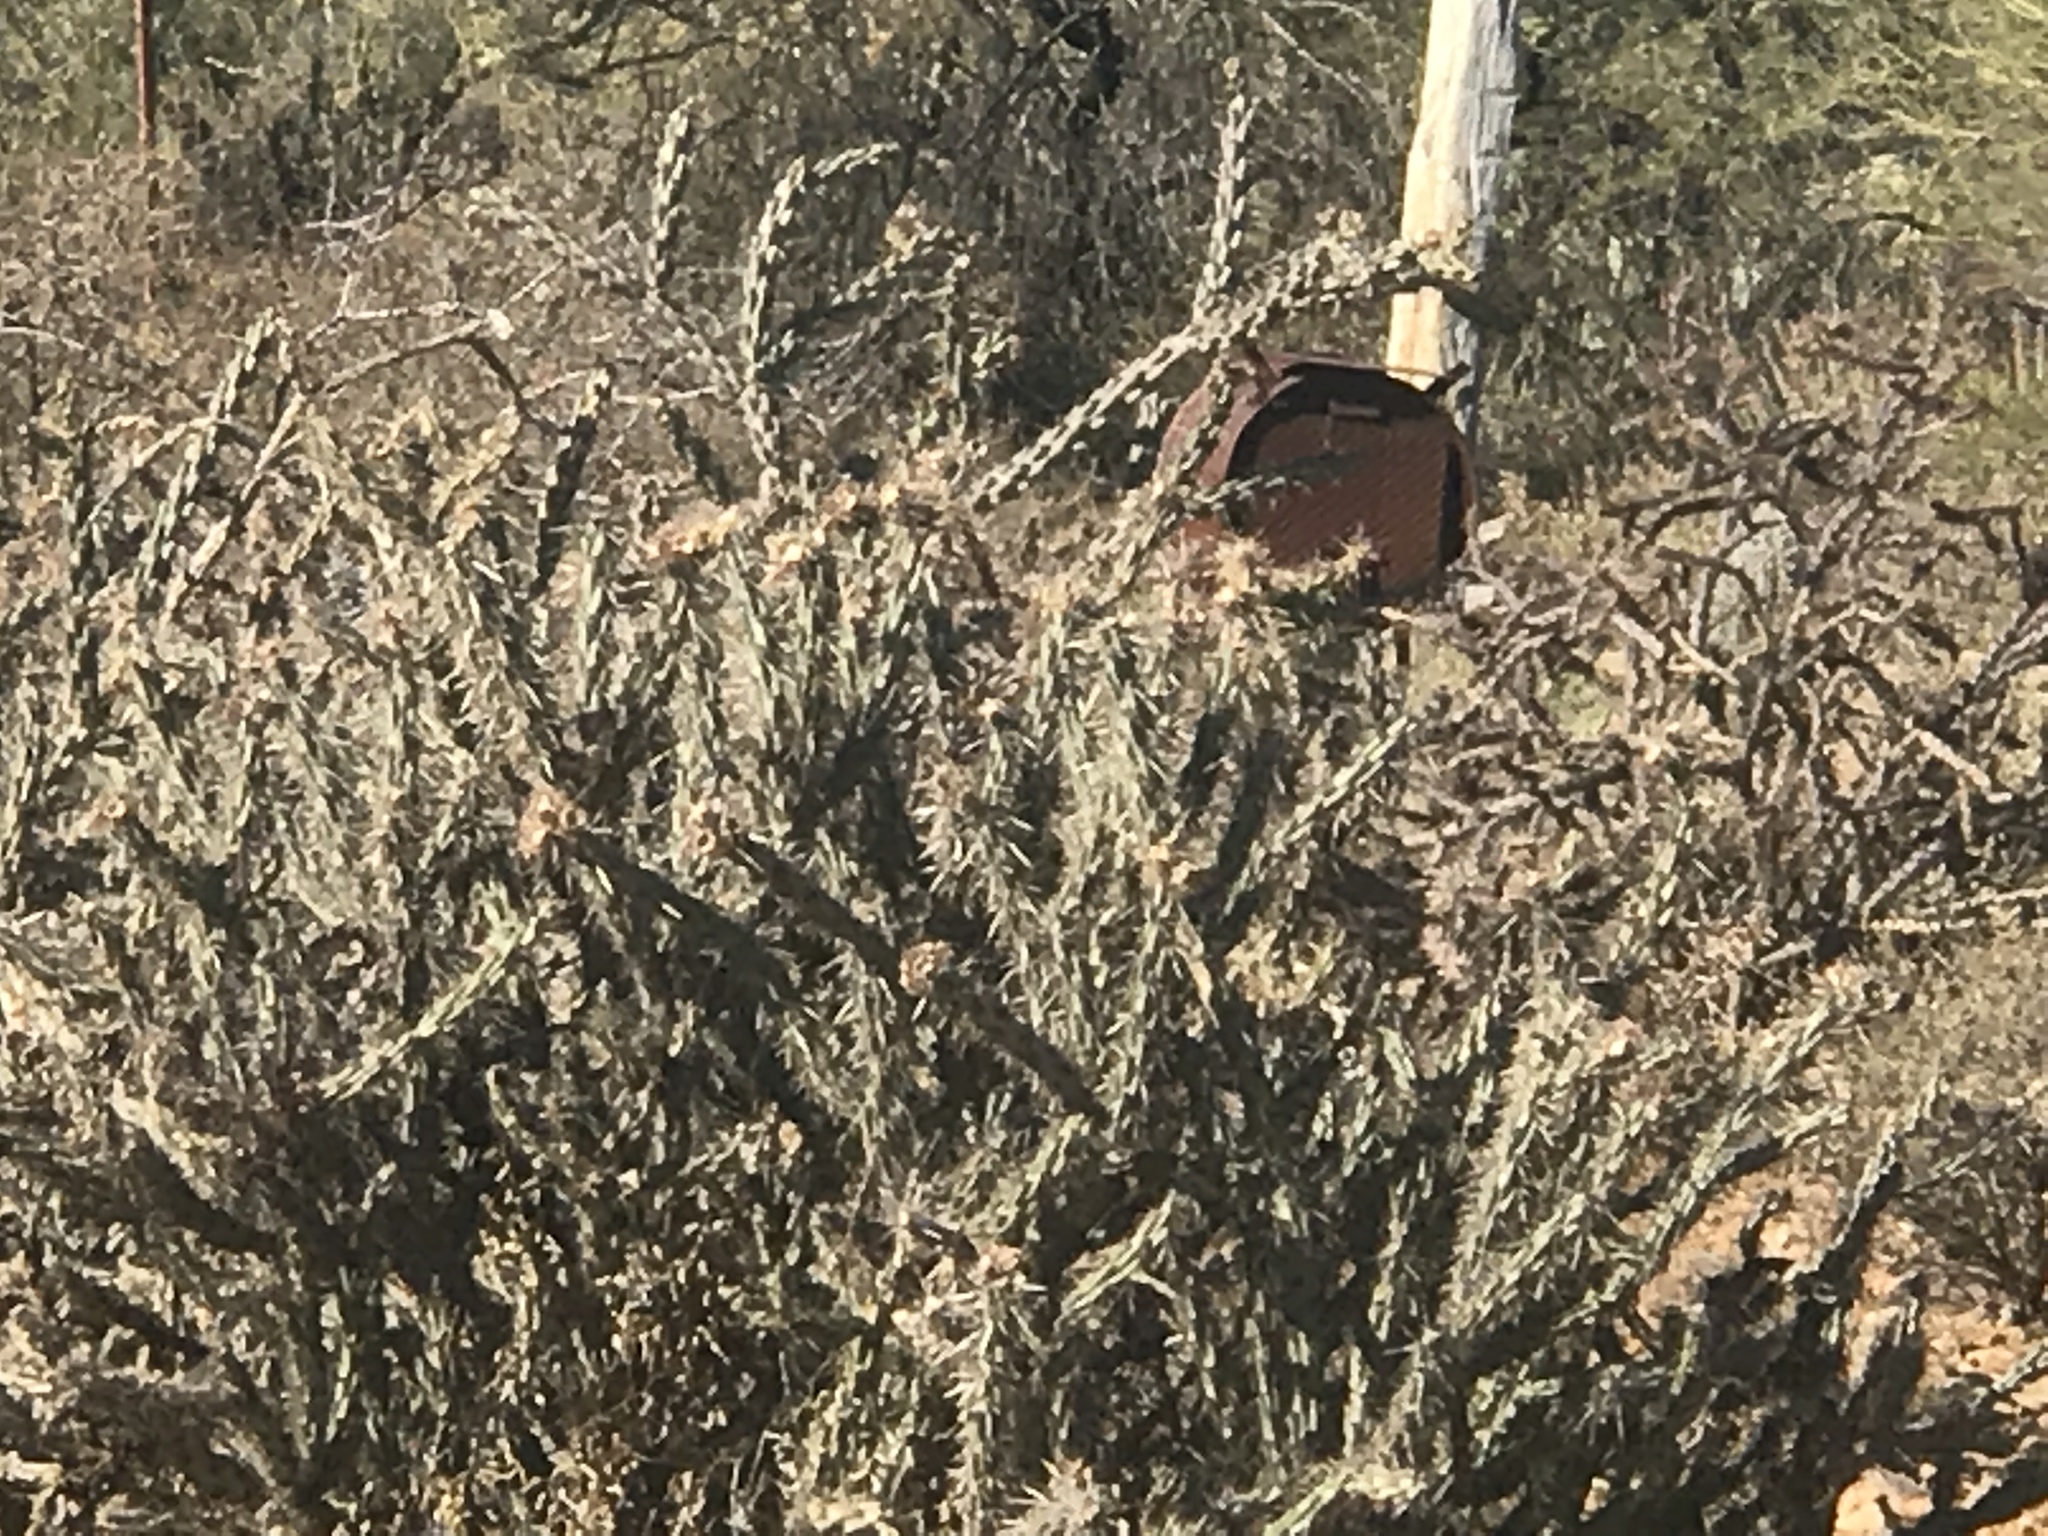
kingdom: Plantae
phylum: Tracheophyta
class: Magnoliopsida
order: Caryophyllales
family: Cactaceae
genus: Cylindropuntia
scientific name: Cylindropuntia acanthocarpa
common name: Buckhorn cholla
